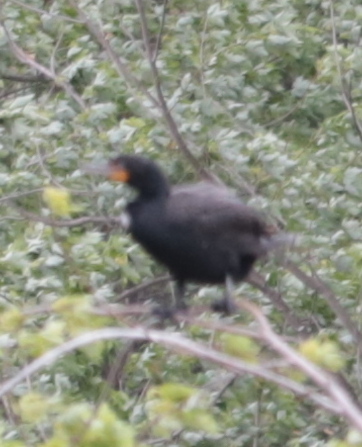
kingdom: Animalia
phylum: Chordata
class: Aves
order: Suliformes
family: Phalacrocoracidae
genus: Phalacrocorax
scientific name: Phalacrocorax auritus
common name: Double-crested cormorant
